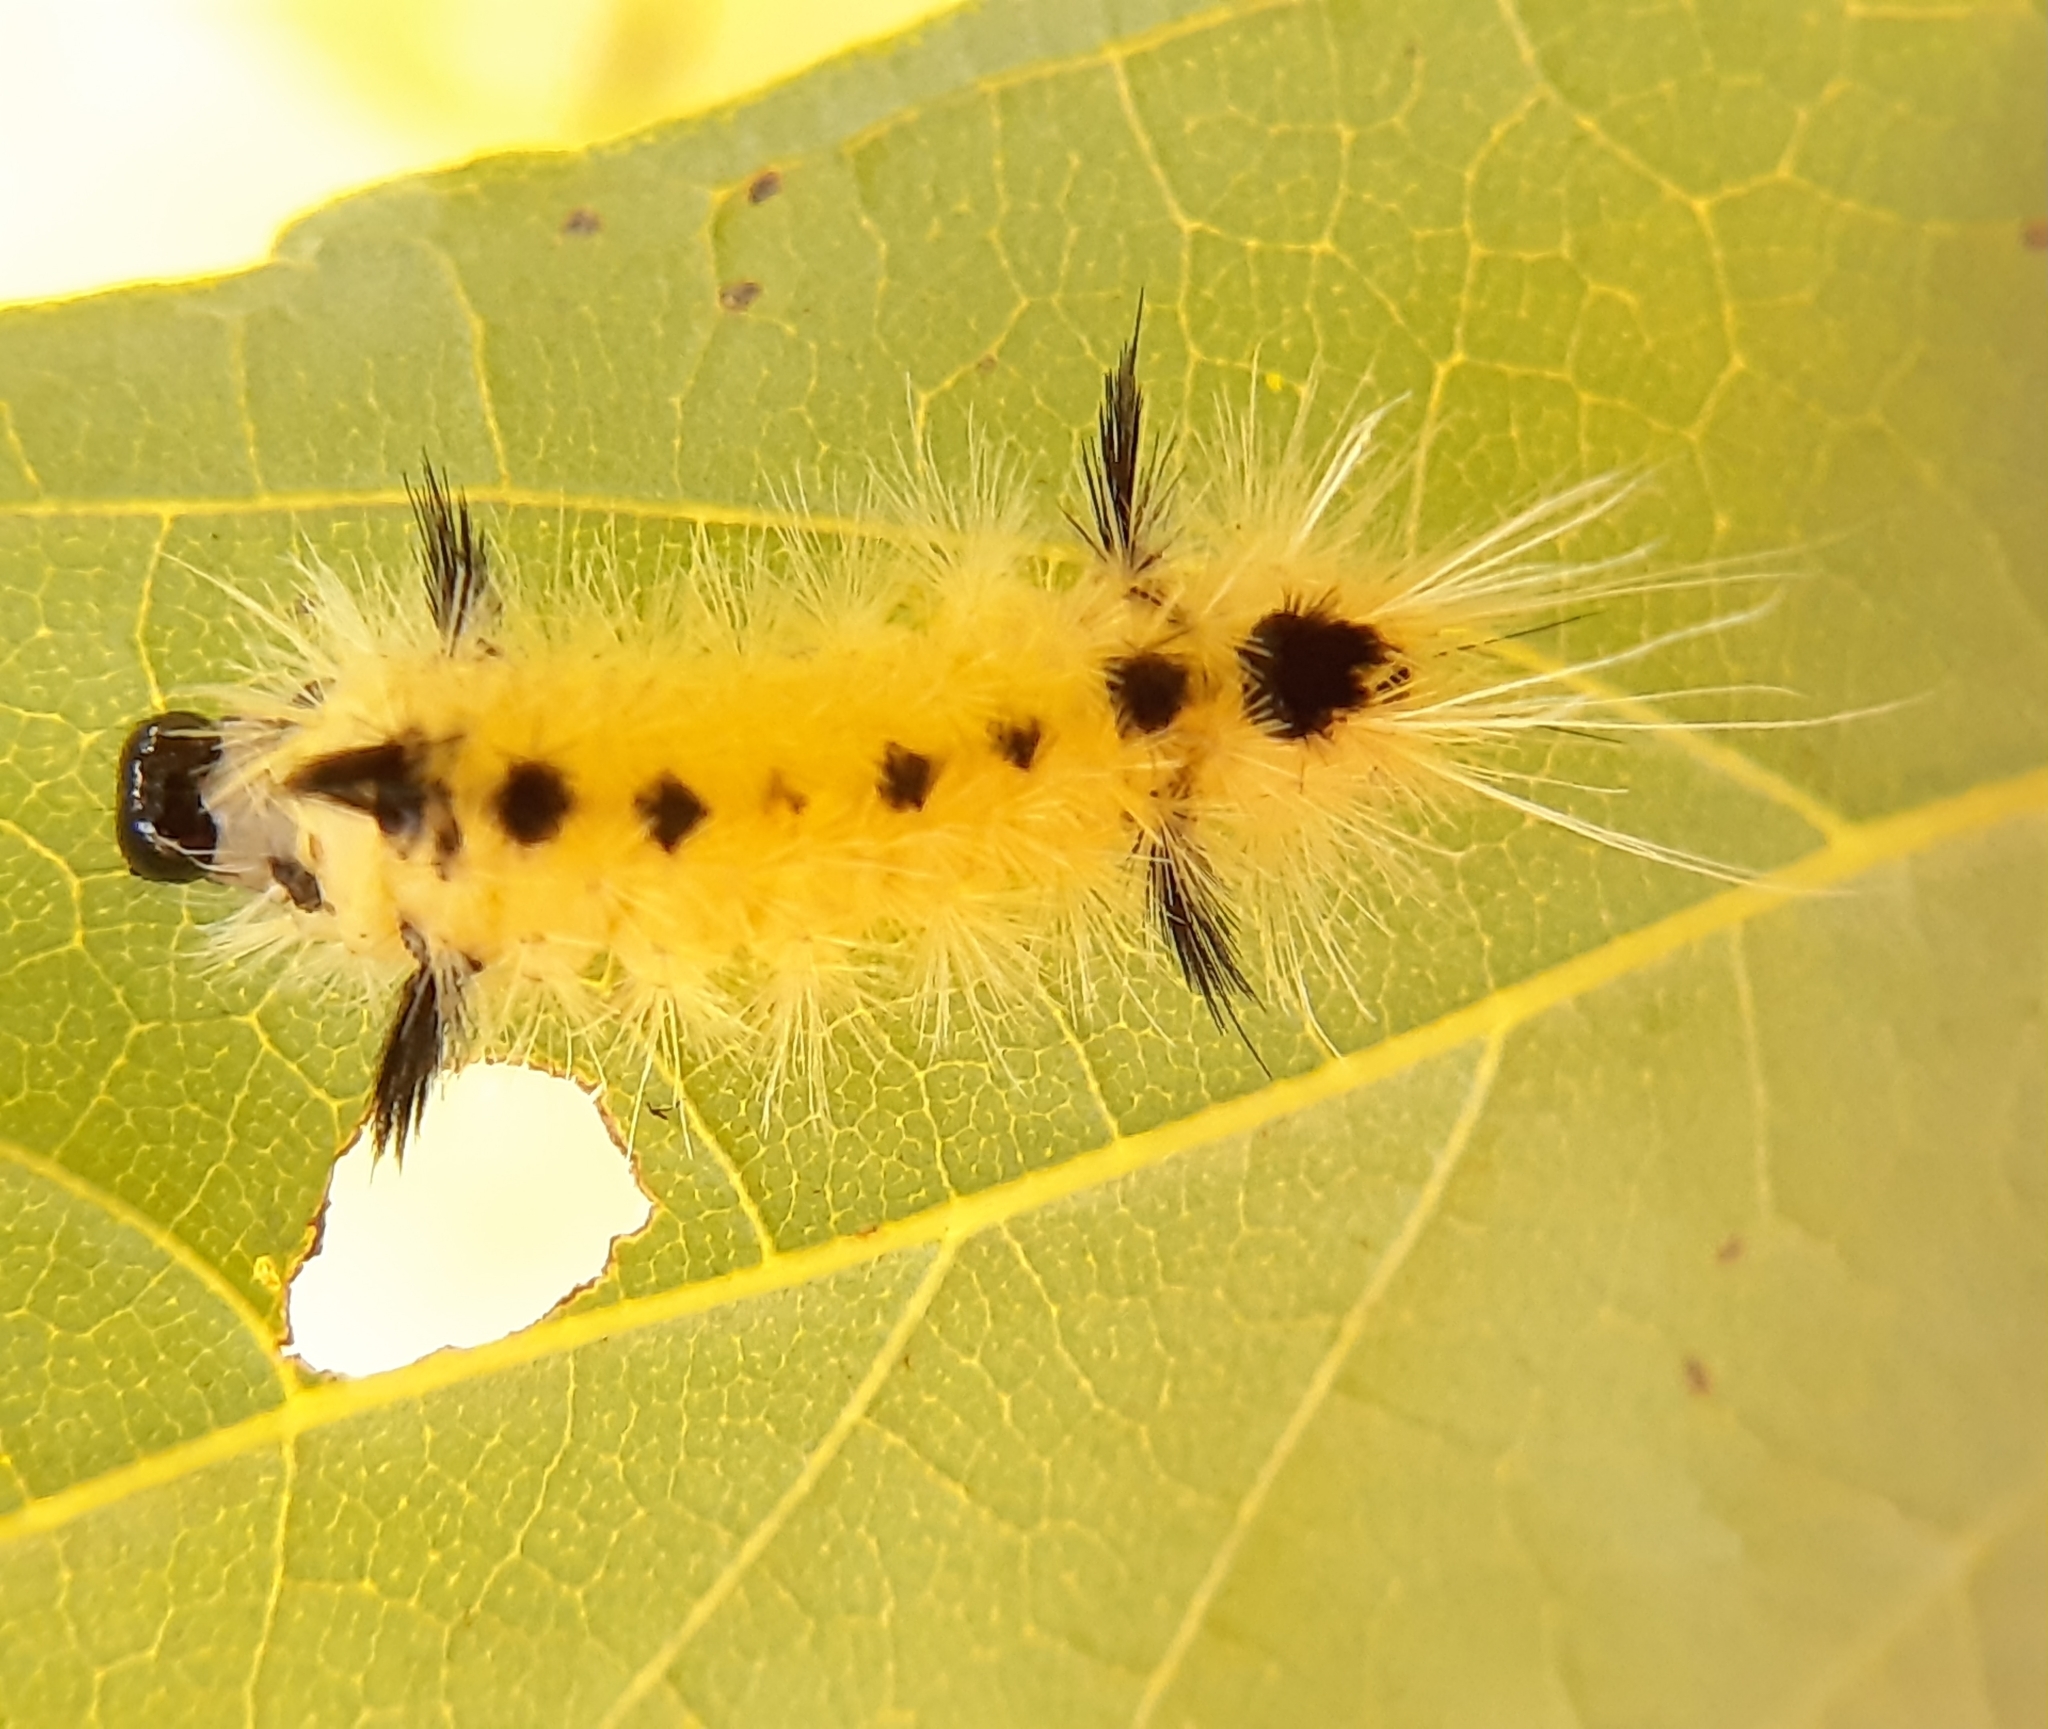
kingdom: Animalia
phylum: Arthropoda
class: Insecta
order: Lepidoptera
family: Erebidae
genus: Lophocampa
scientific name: Lophocampa maculata
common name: Spotted tussock moth
